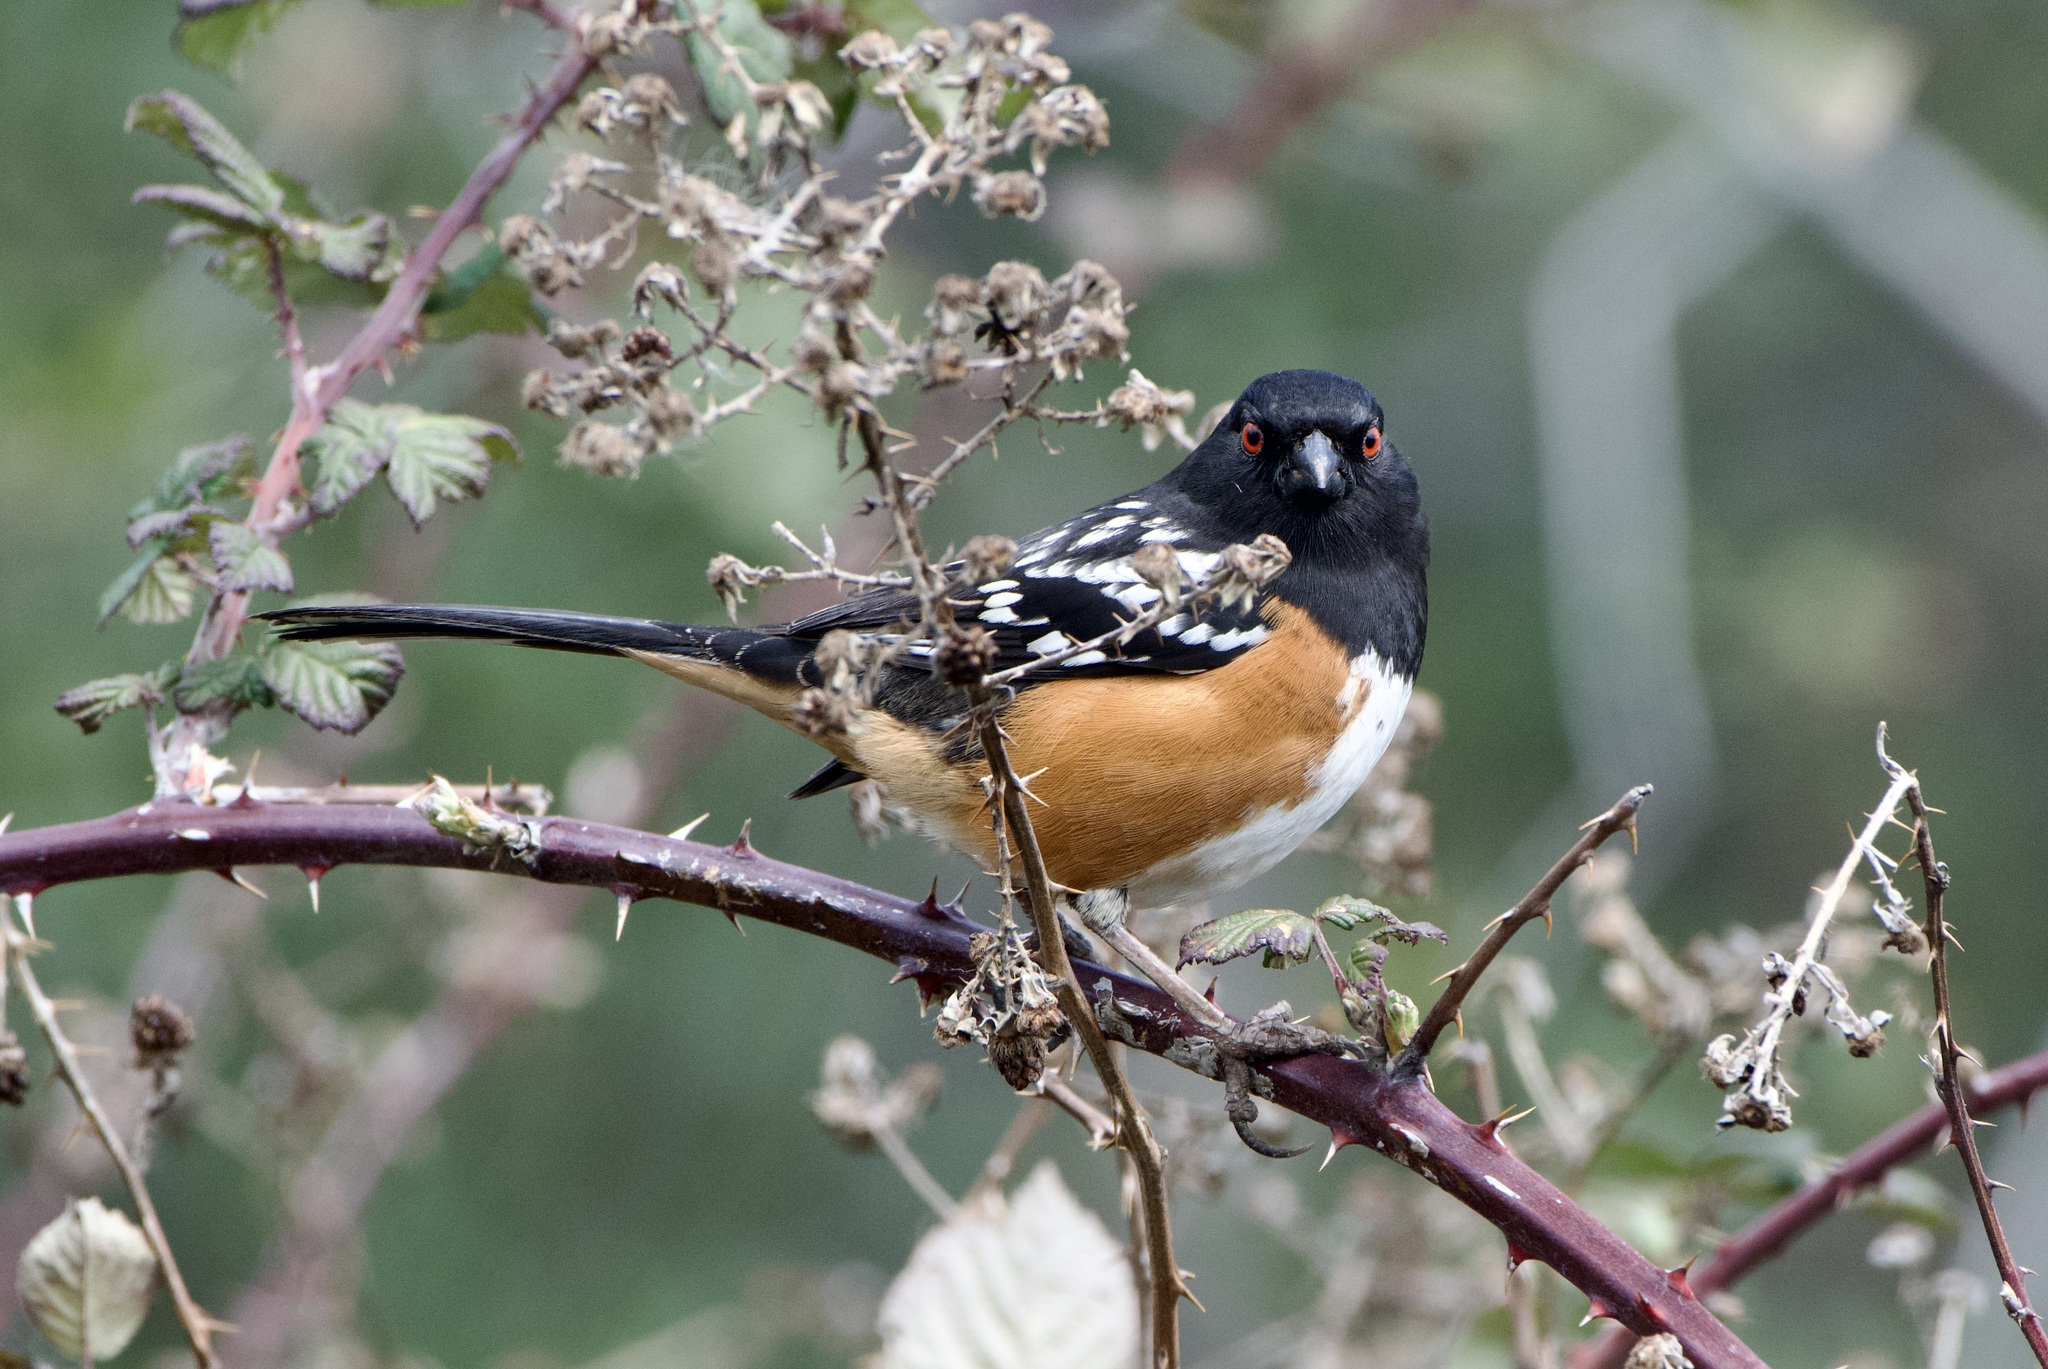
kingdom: Animalia
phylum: Chordata
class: Aves
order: Passeriformes
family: Passerellidae
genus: Pipilo
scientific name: Pipilo maculatus
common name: Spotted towhee
